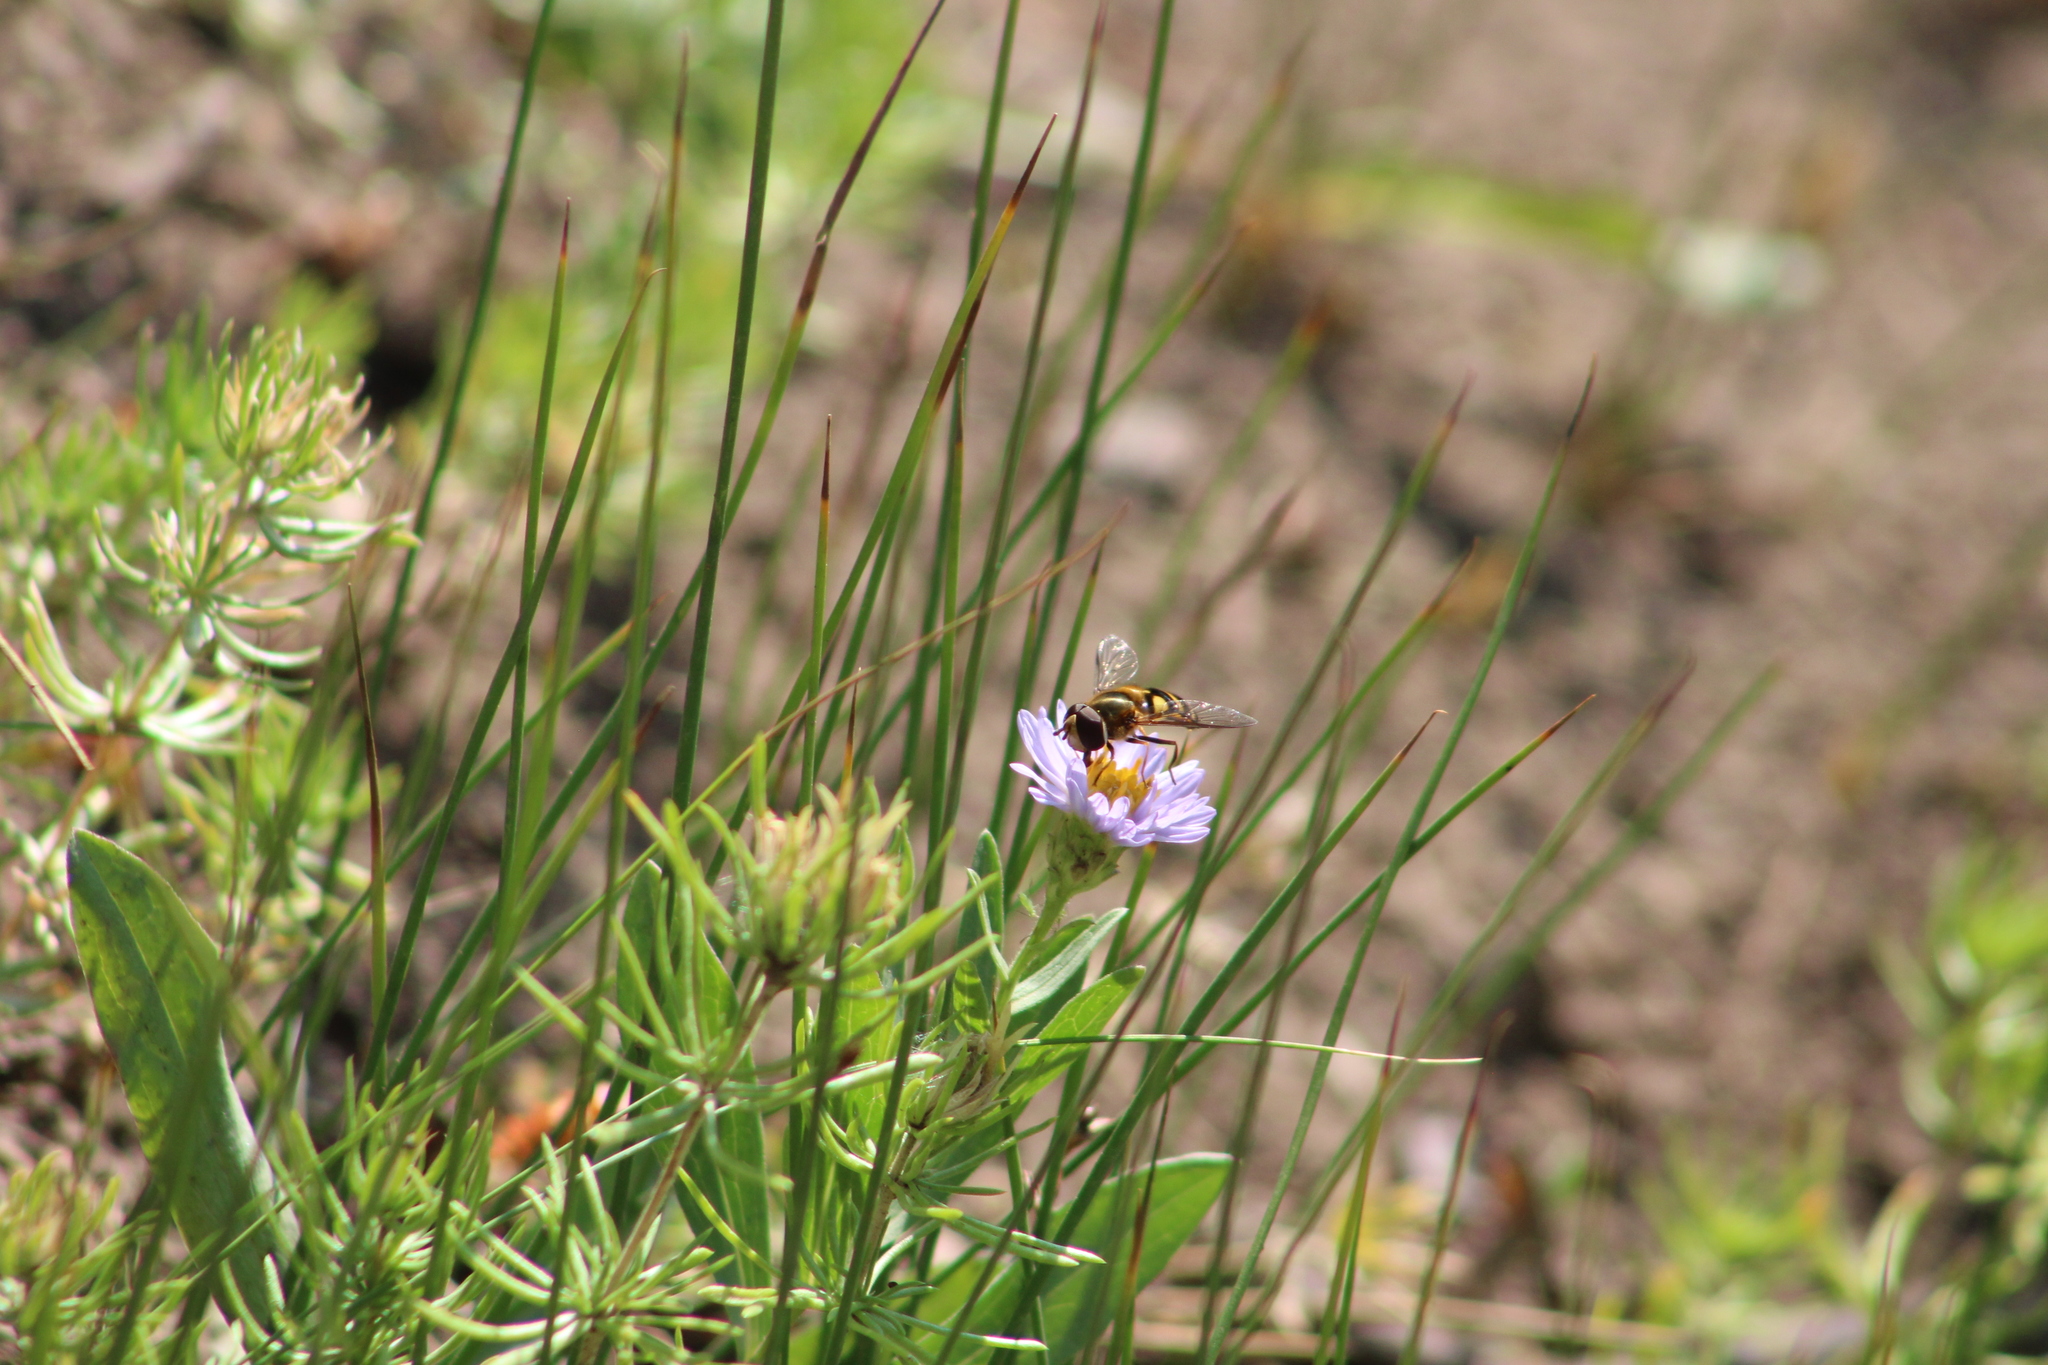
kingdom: Animalia
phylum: Arthropoda
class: Insecta
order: Diptera
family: Syrphidae
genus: Eupeodes
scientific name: Eupeodes fumipennis
